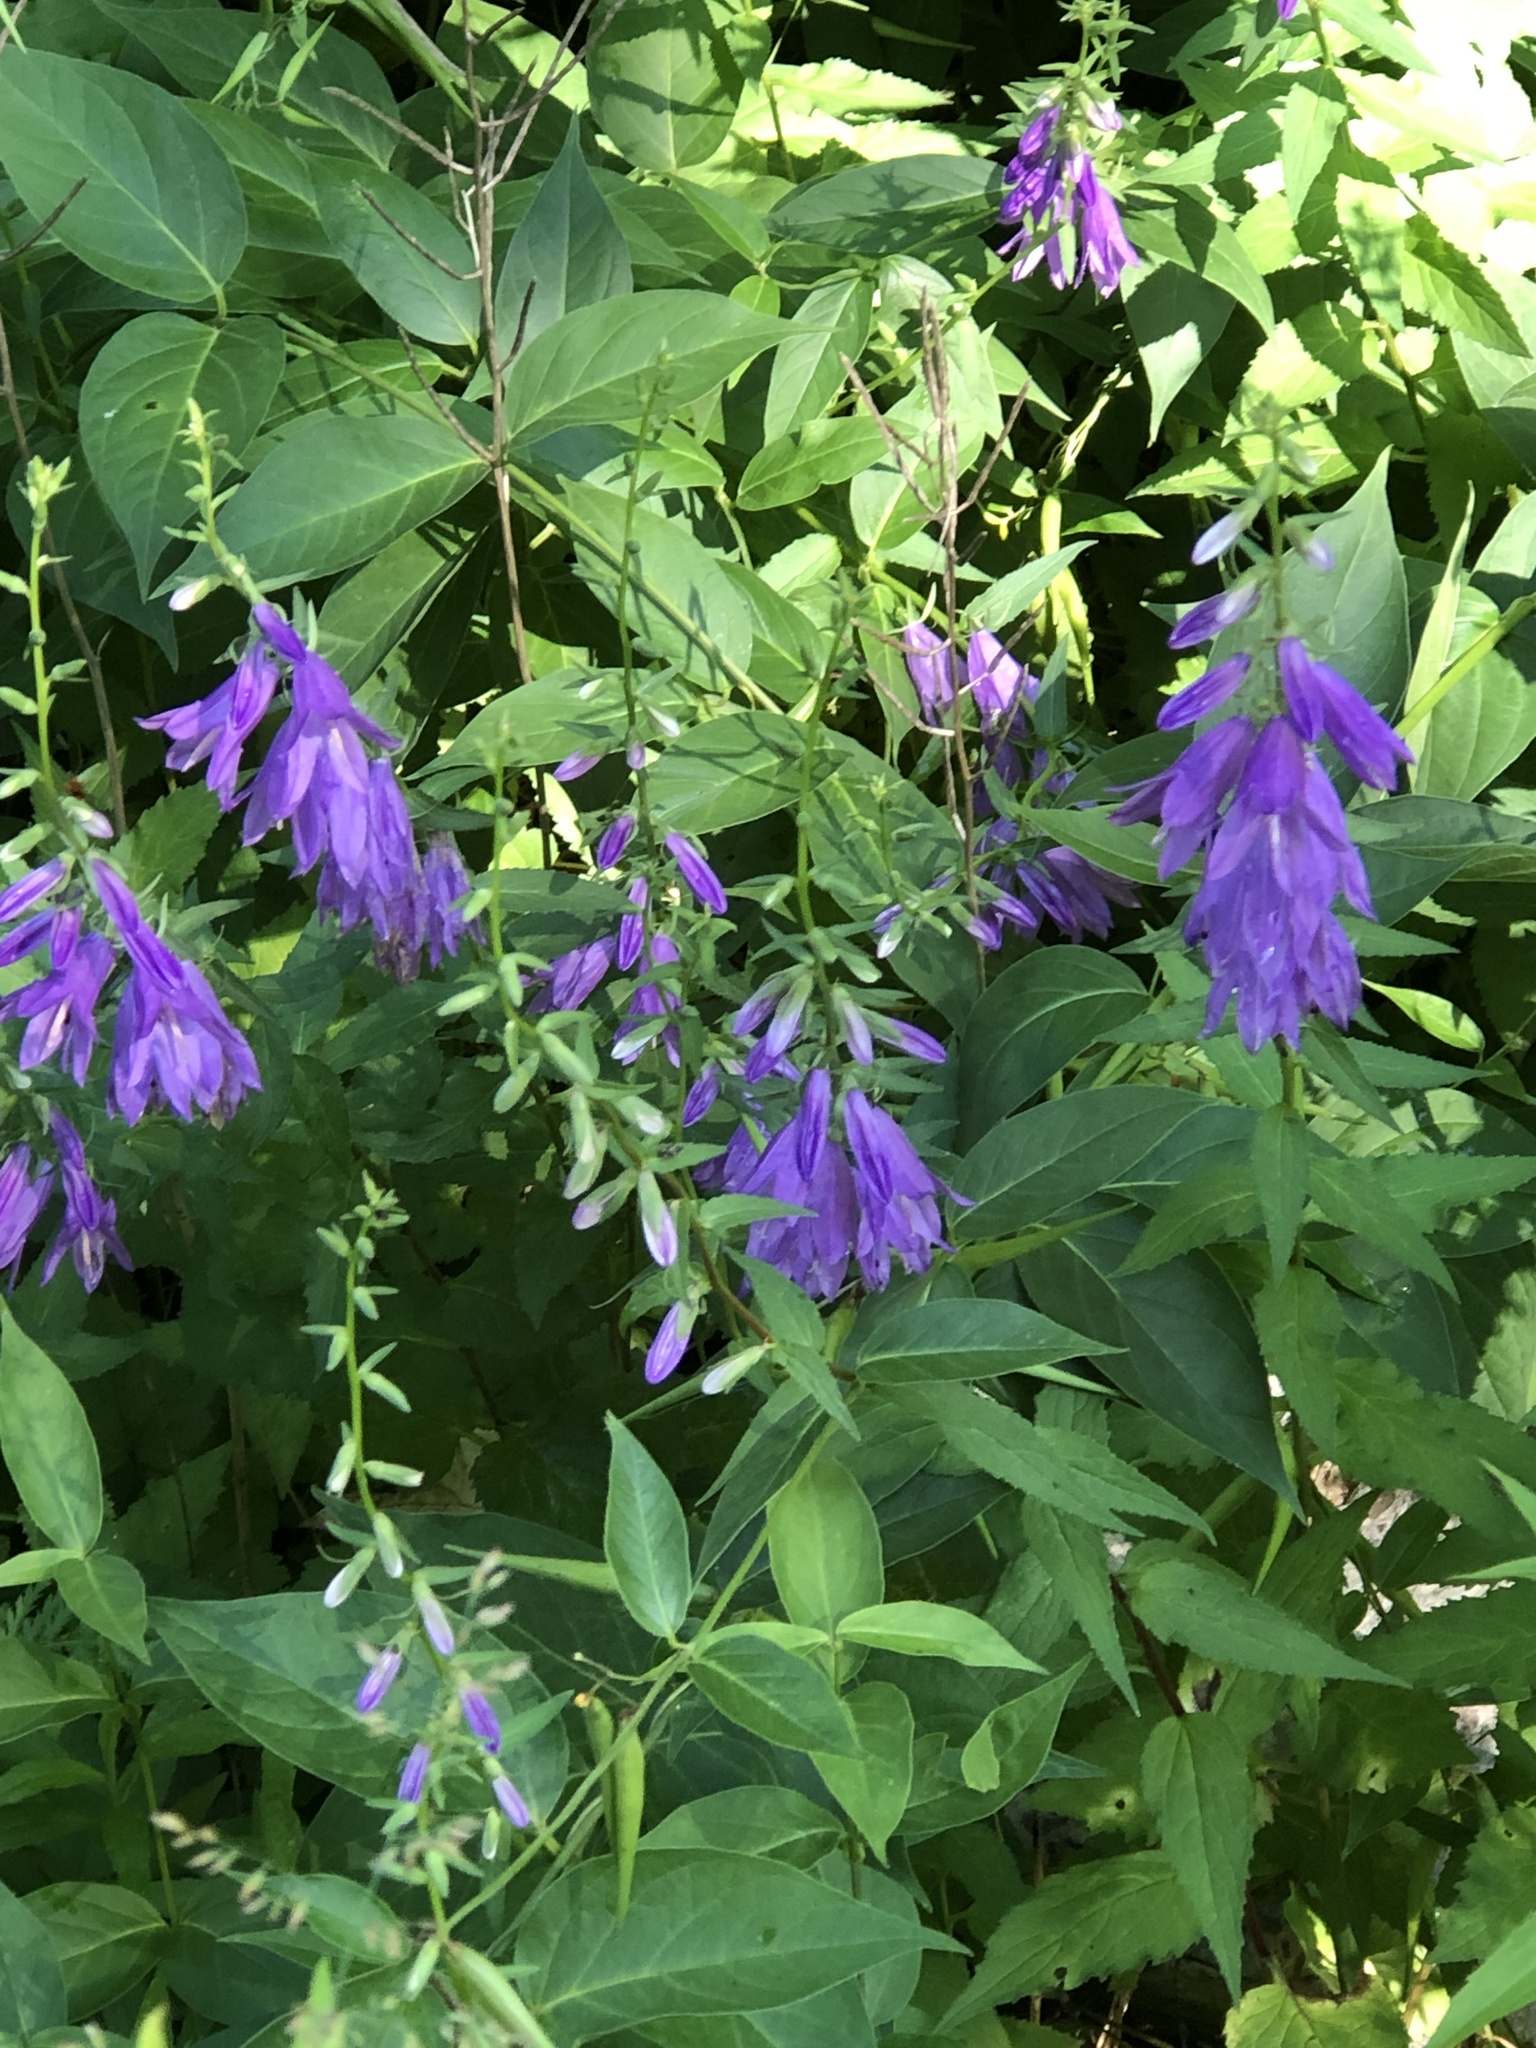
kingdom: Plantae
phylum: Tracheophyta
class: Magnoliopsida
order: Asterales
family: Campanulaceae
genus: Campanula
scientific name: Campanula rapunculoides
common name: Creeping bellflower
